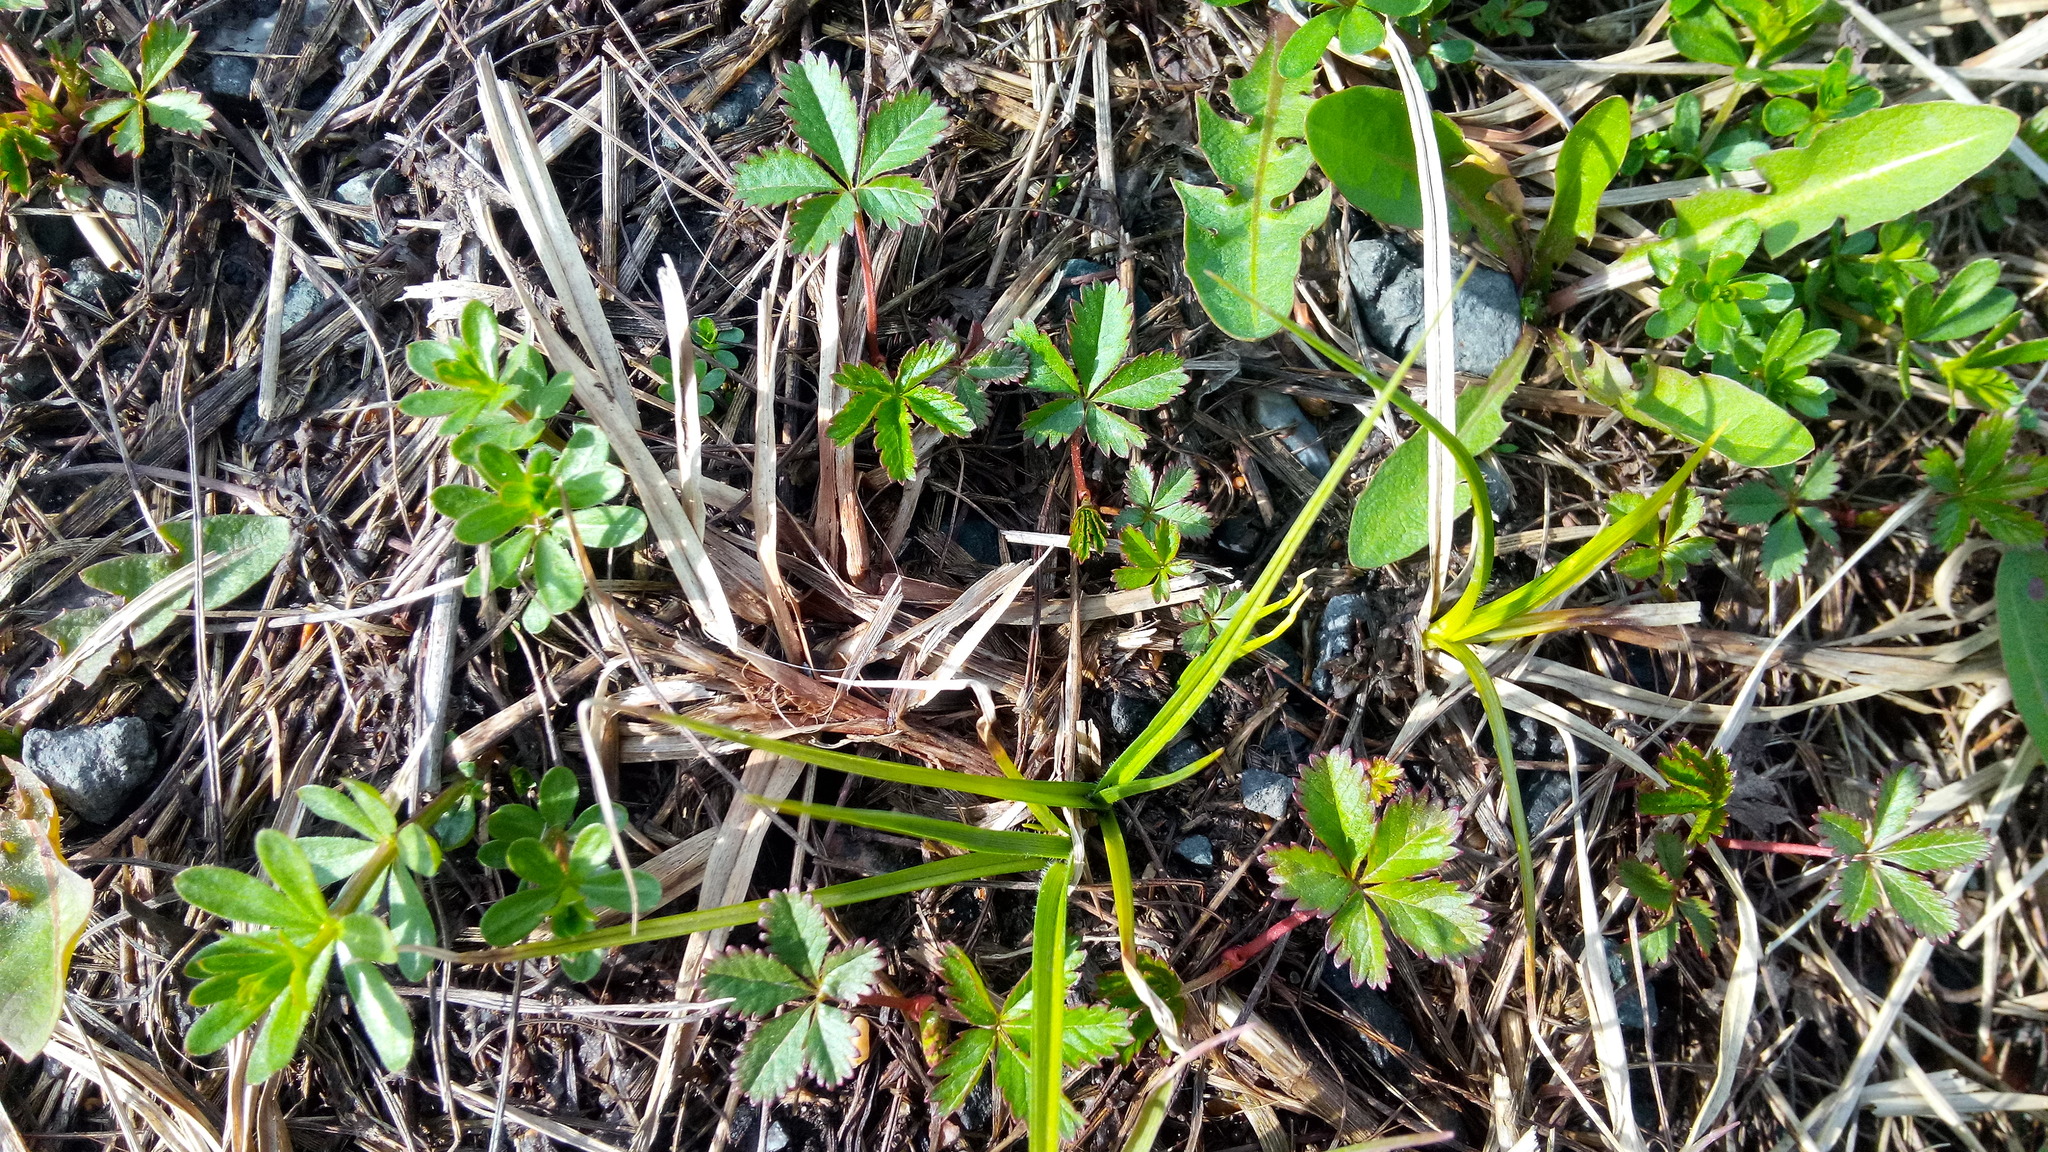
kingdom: Plantae
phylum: Tracheophyta
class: Magnoliopsida
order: Rosales
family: Rosaceae
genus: Potentilla
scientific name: Potentilla reptans
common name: Creeping cinquefoil
